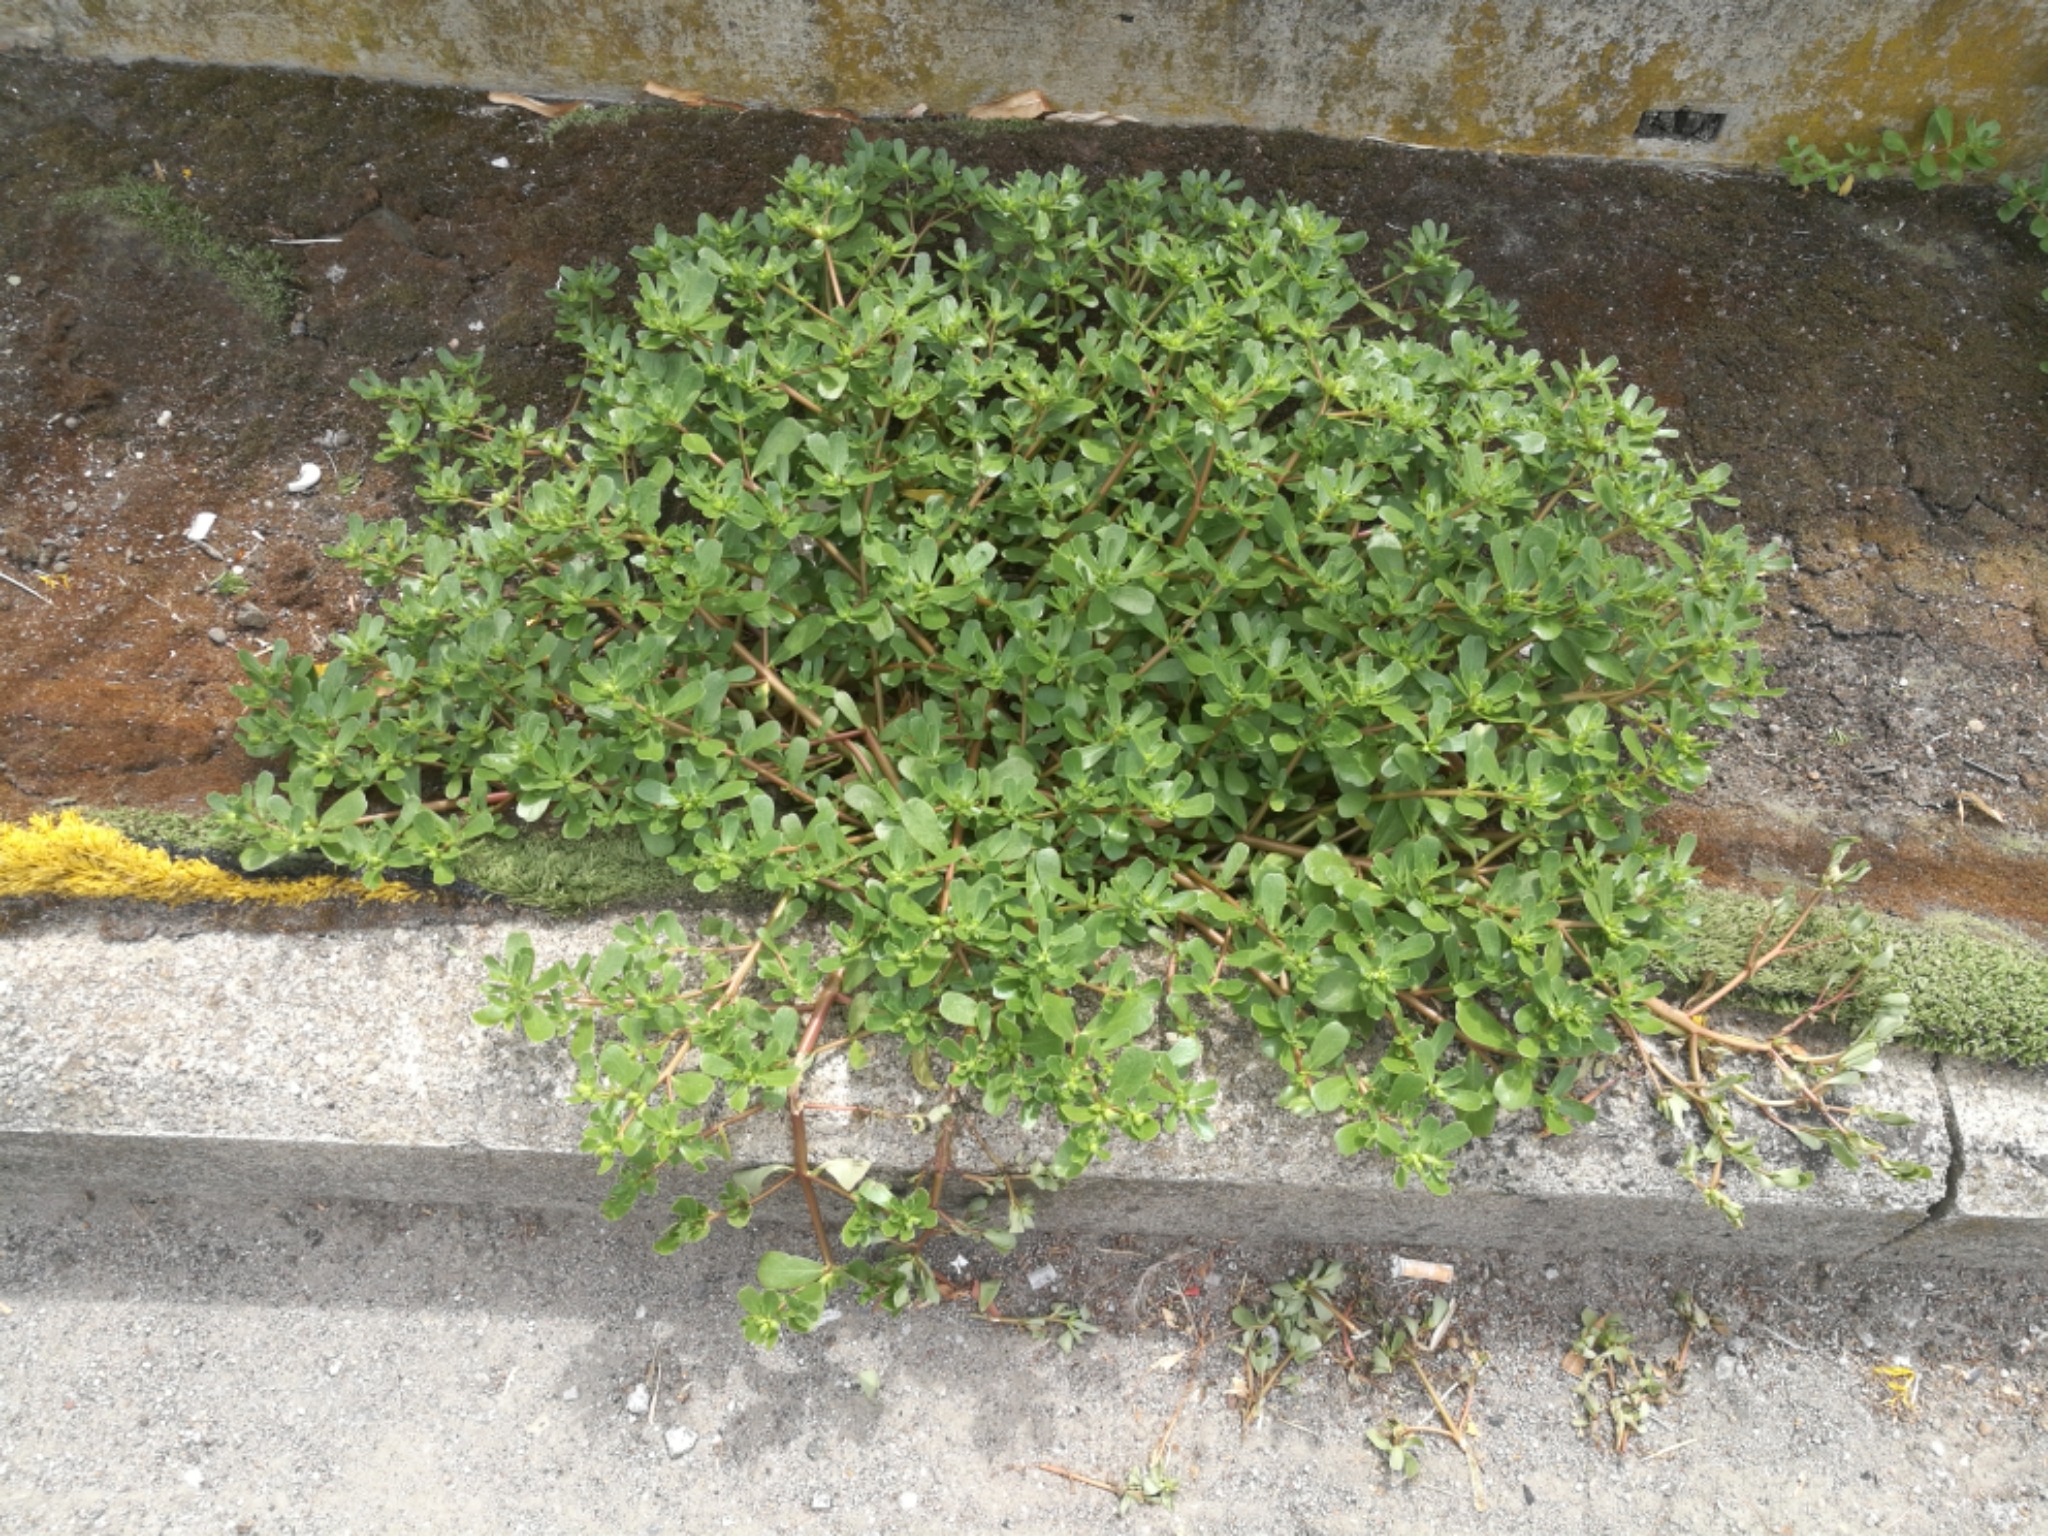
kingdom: Plantae
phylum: Tracheophyta
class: Magnoliopsida
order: Caryophyllales
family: Portulacaceae
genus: Portulaca
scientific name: Portulaca oleracea
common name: Common purslane
